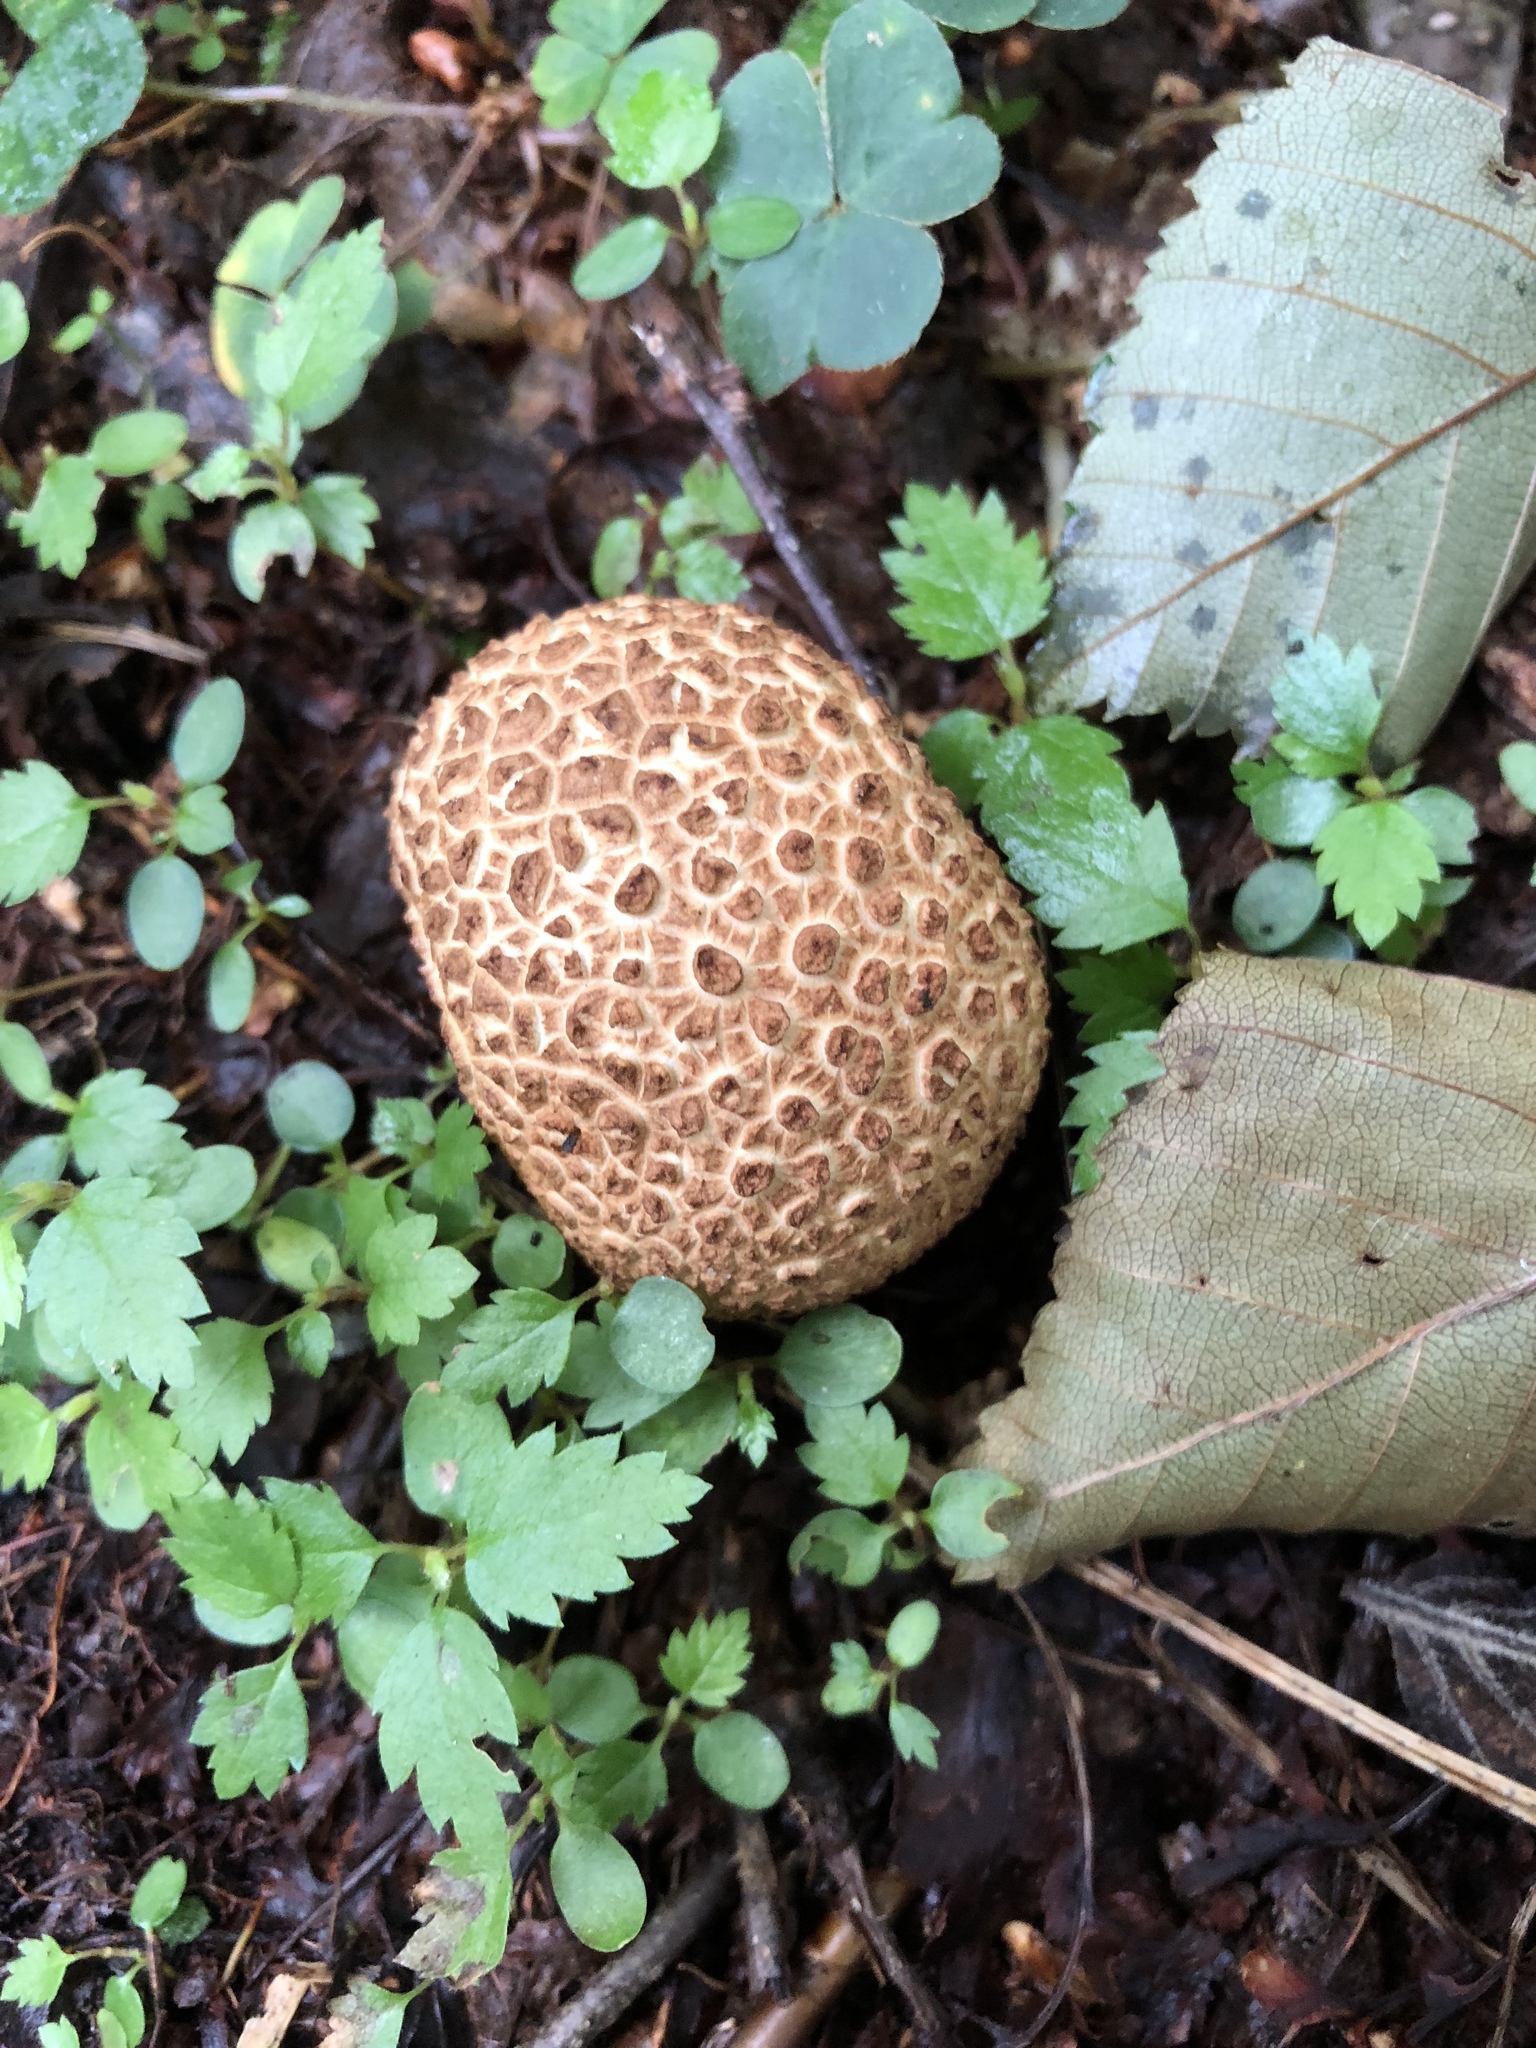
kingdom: Fungi
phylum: Basidiomycota
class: Agaricomycetes
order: Boletales
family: Sclerodermataceae
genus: Scleroderma
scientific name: Scleroderma citrinum
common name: Common earthball
